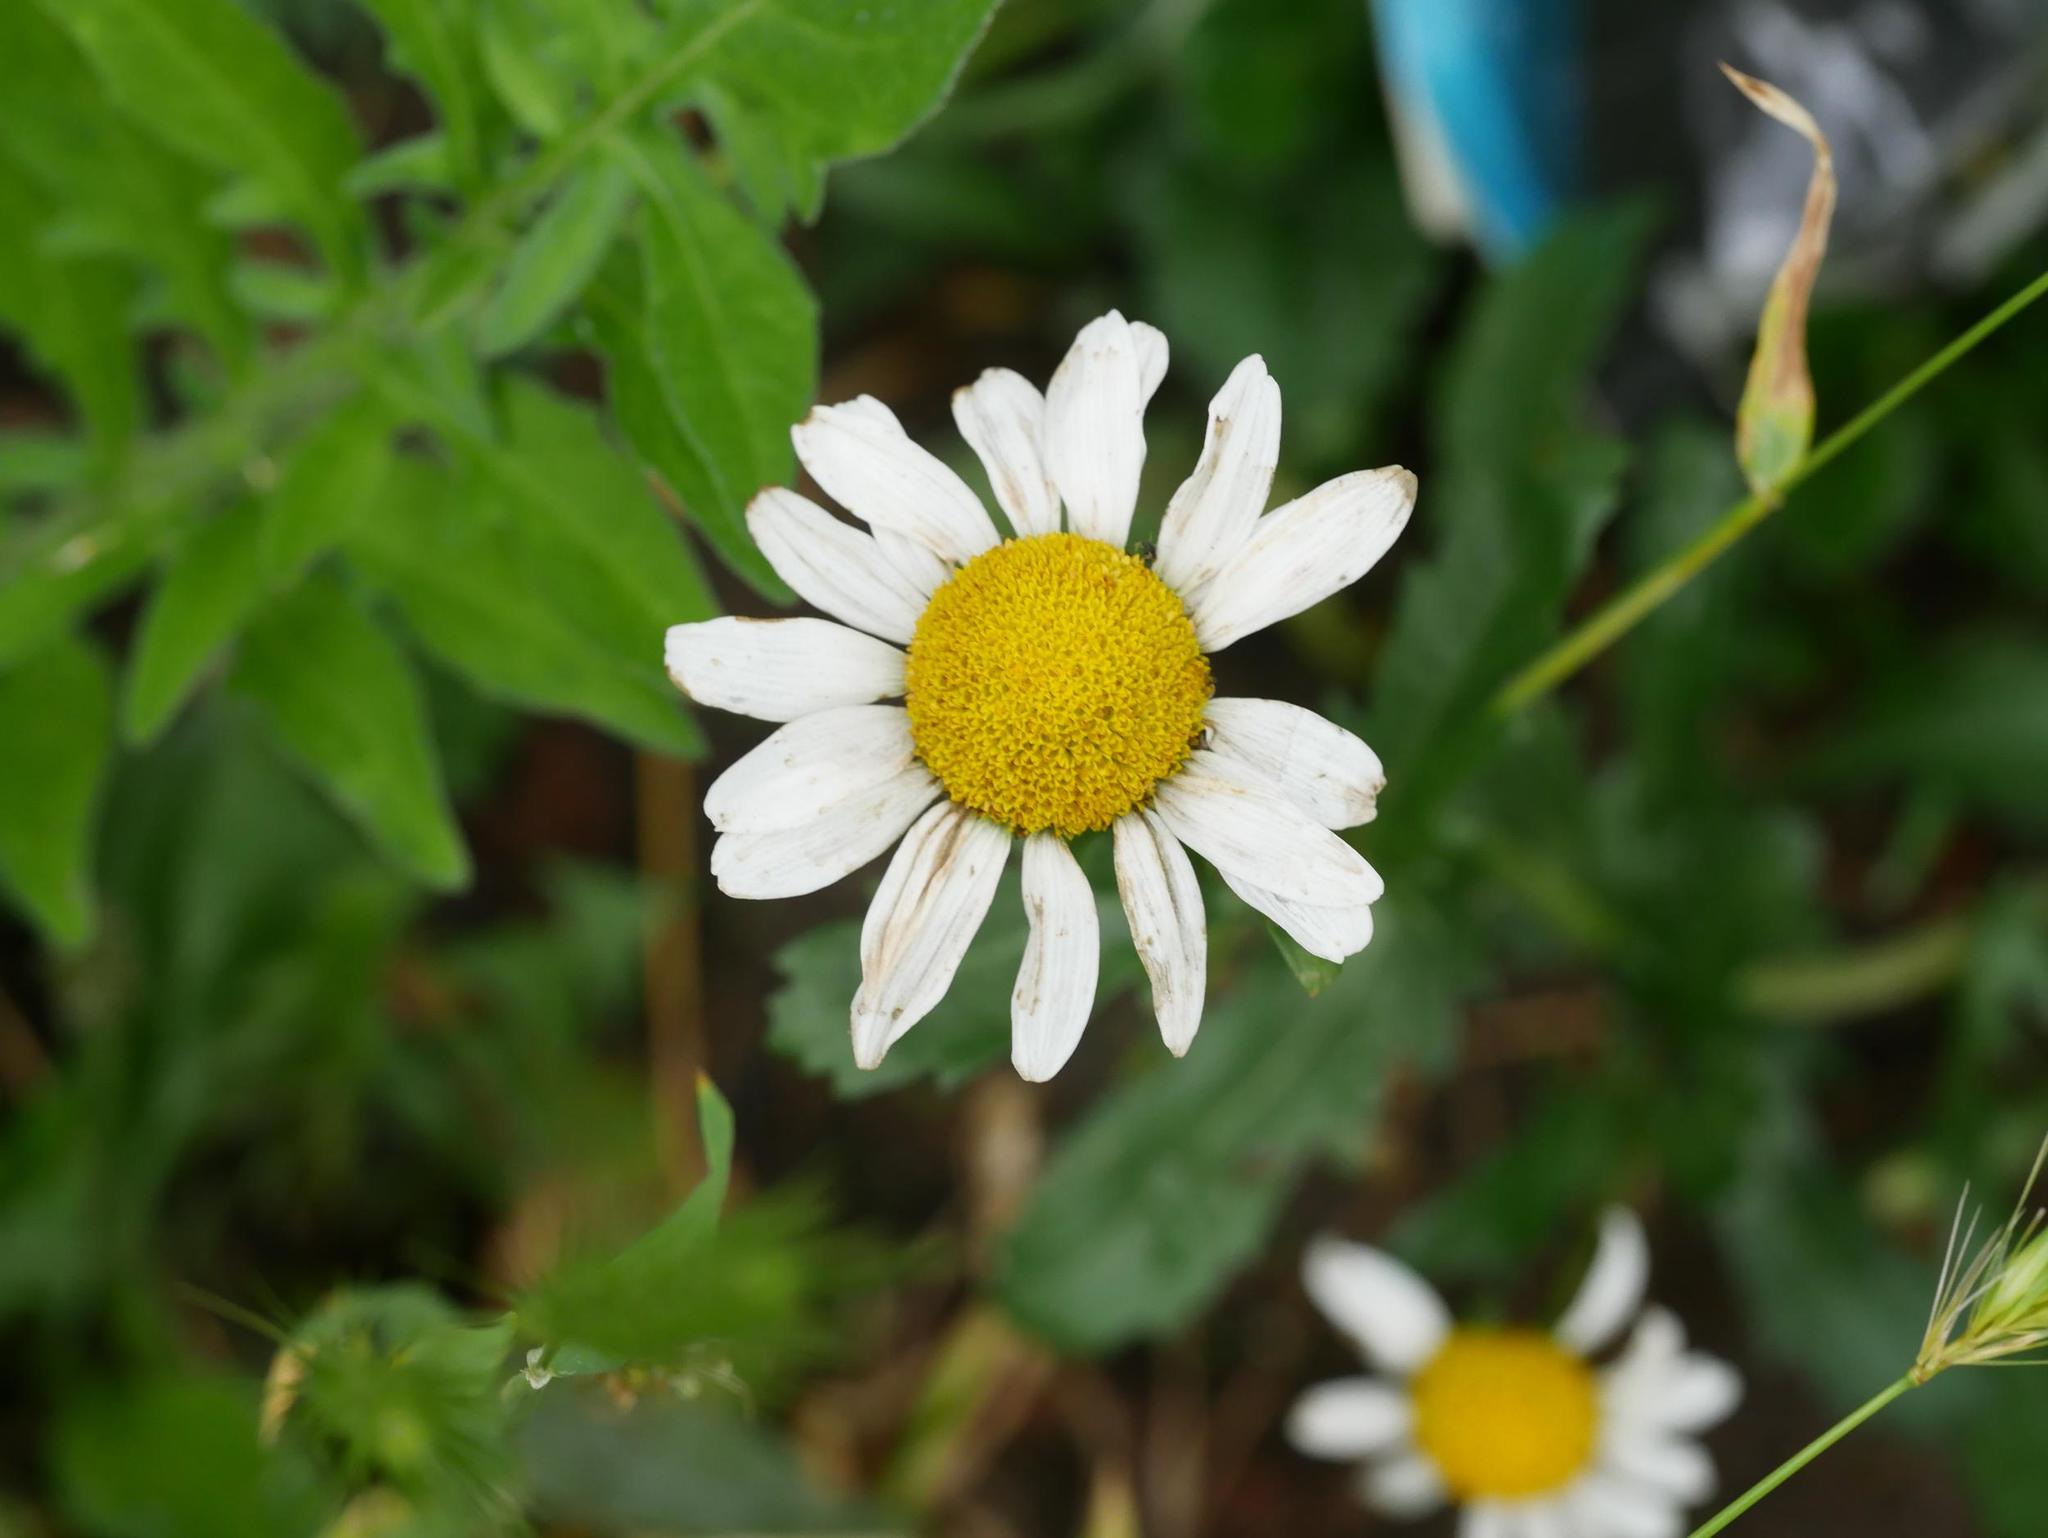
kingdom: Plantae
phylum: Tracheophyta
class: Magnoliopsida
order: Asterales
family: Asteraceae
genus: Leucanthemum
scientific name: Leucanthemum vulgare
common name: Oxeye daisy
